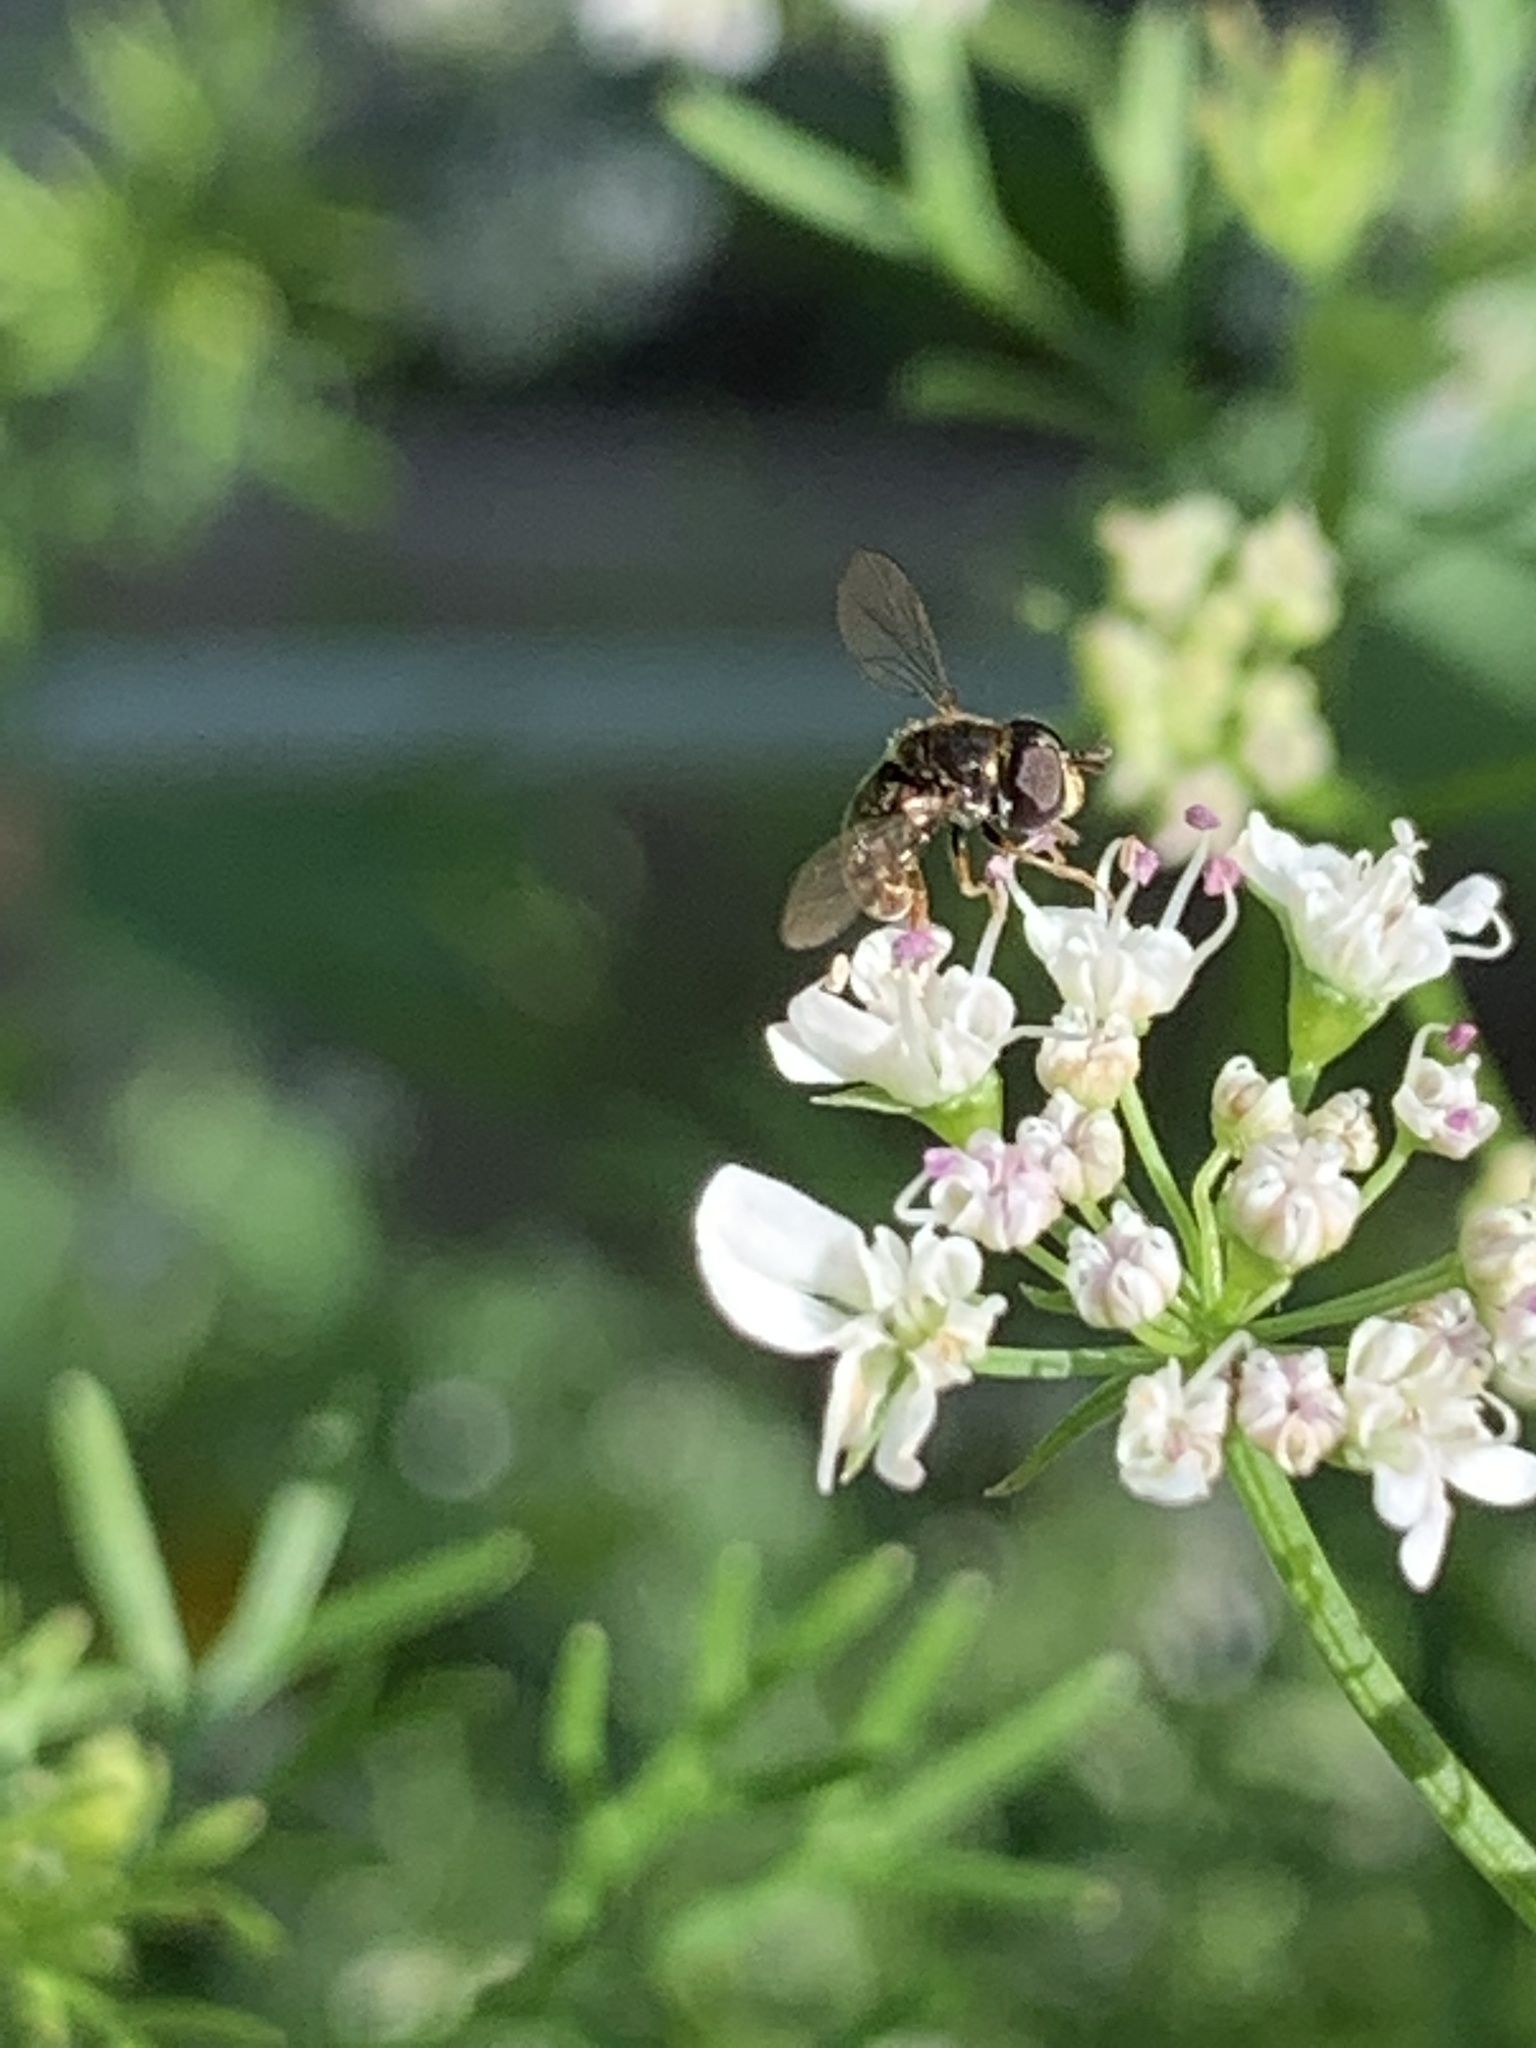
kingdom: Animalia
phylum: Arthropoda
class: Insecta
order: Diptera
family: Syrphidae
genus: Paragus
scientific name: Paragus haemorrhous
